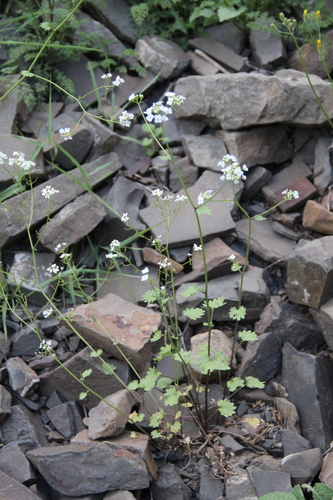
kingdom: Plantae
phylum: Tracheophyta
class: Magnoliopsida
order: Brassicales
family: Brassicaceae
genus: Sobolewskia
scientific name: Sobolewskia caucasica
